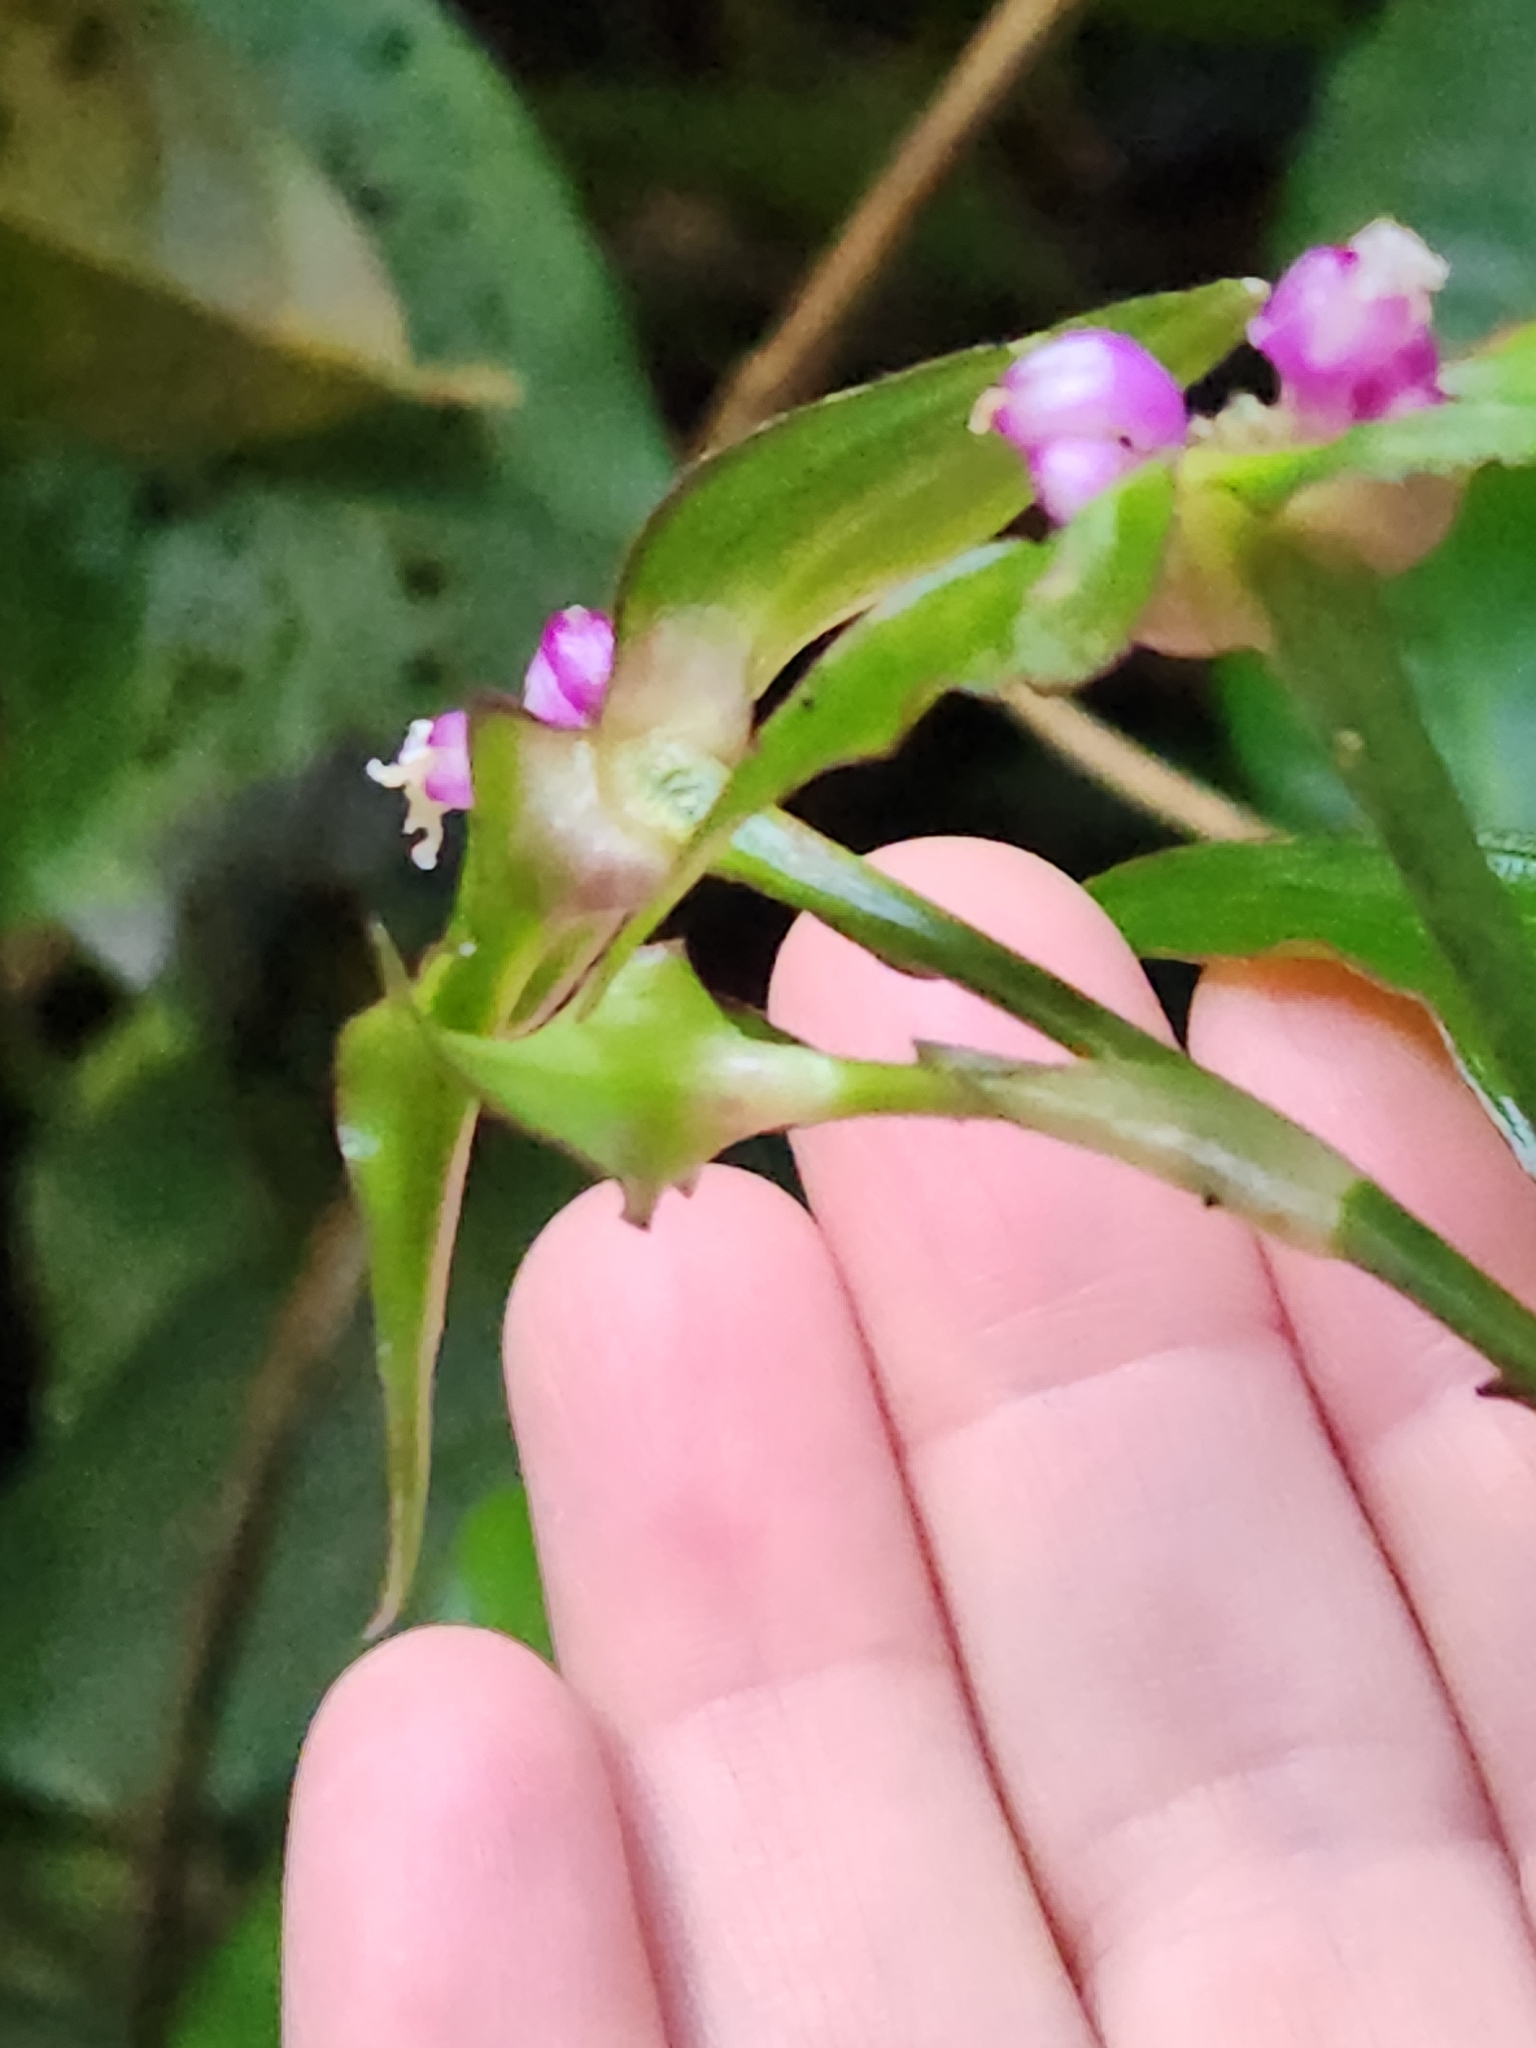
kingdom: Plantae
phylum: Tracheophyta
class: Liliopsida
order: Commelinales
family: Commelinaceae
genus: Tradescantia
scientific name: Tradescantia zanonia
